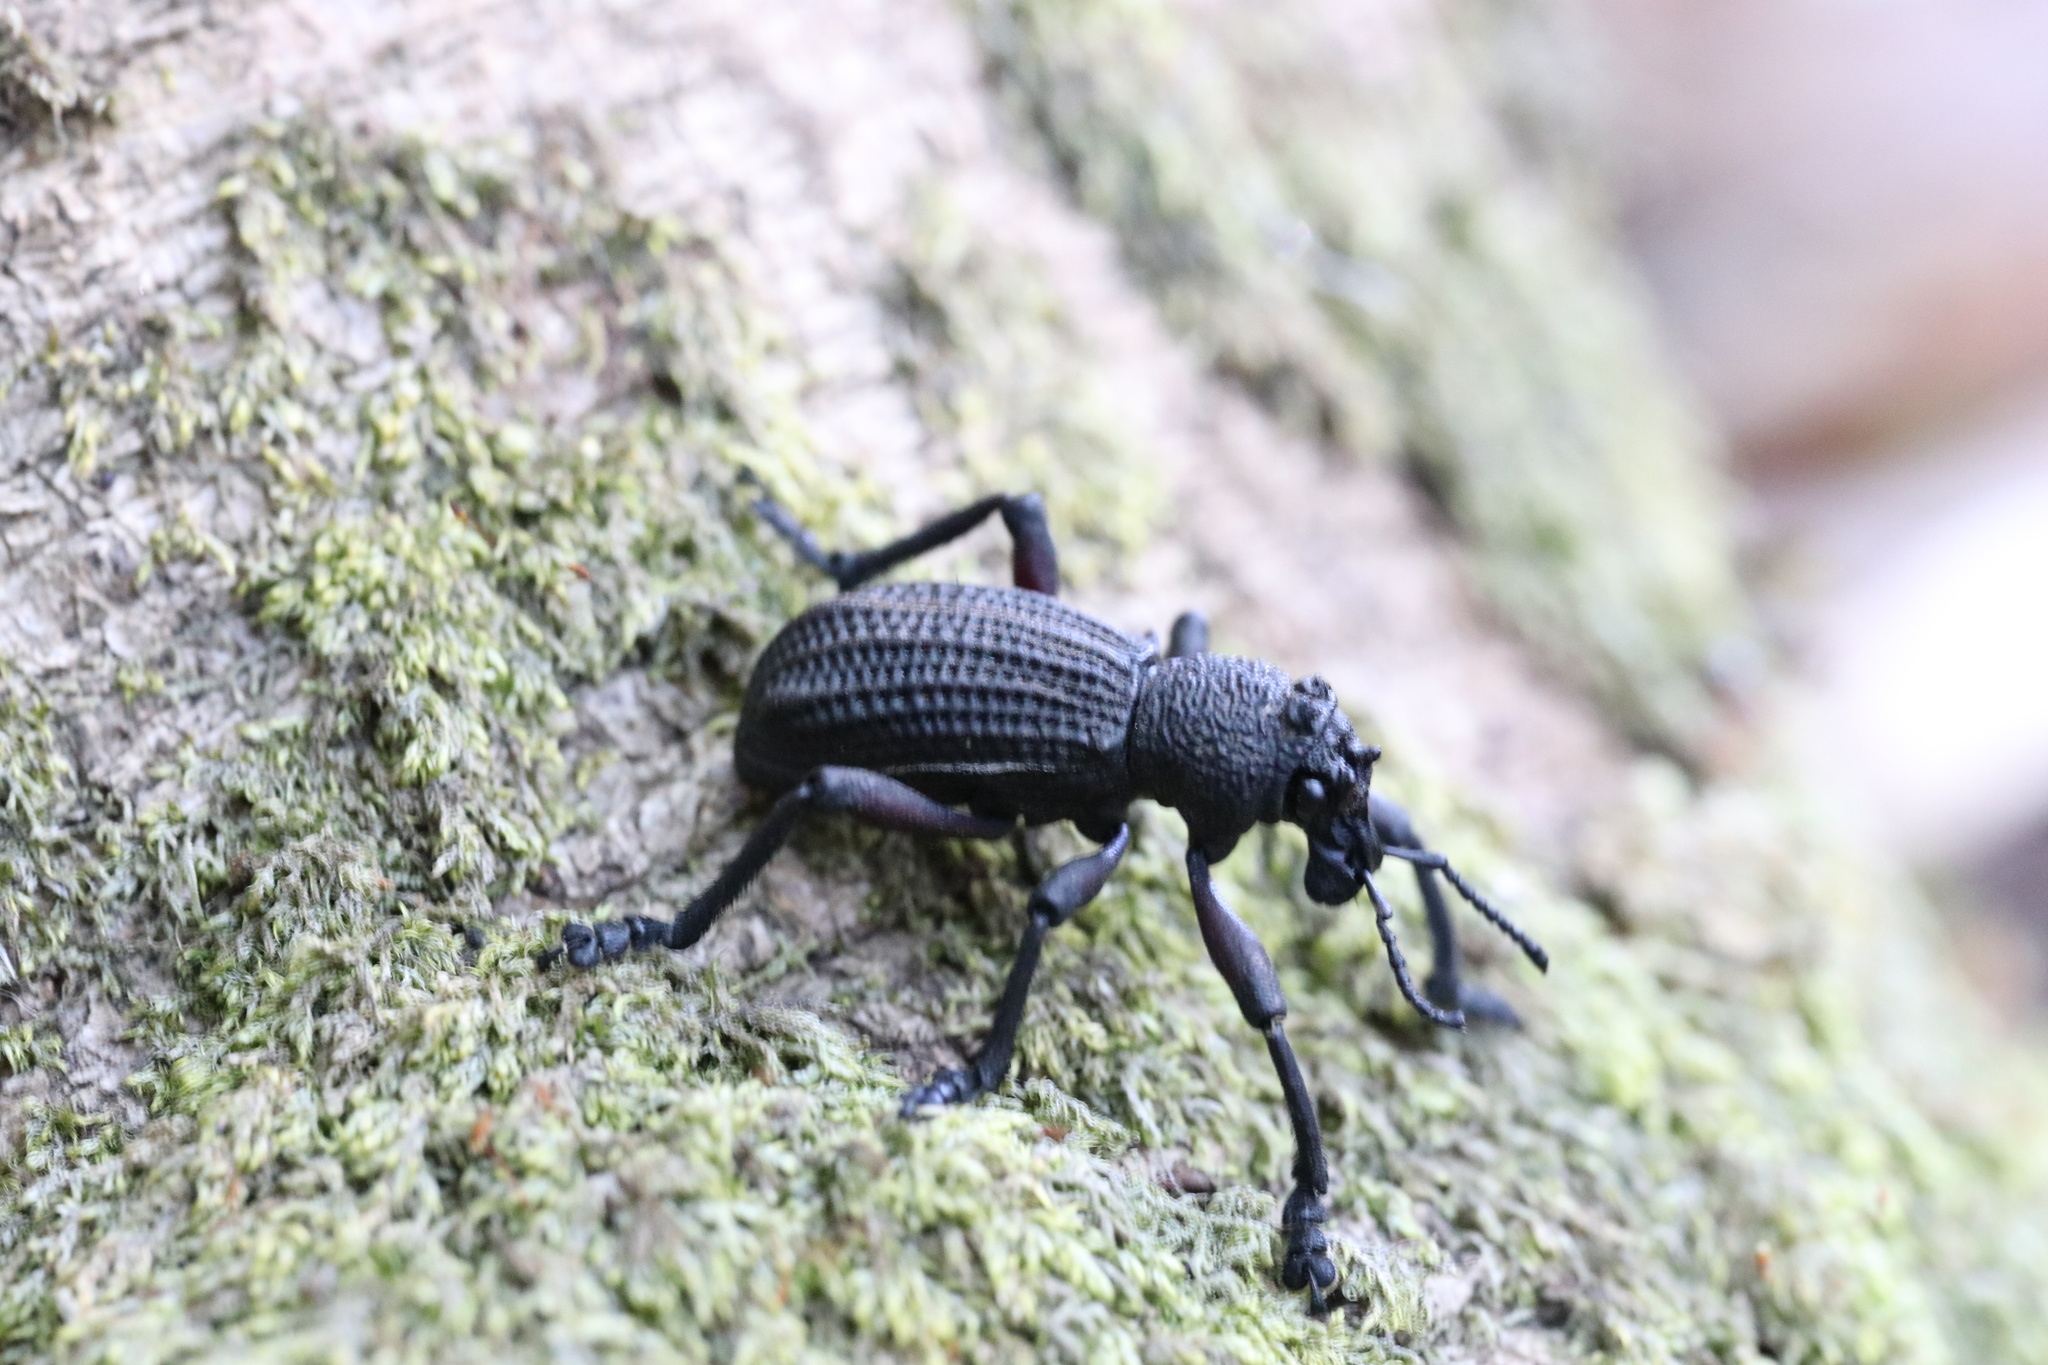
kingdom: Animalia
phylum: Arthropoda
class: Insecta
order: Coleoptera
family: Curculionidae
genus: Aegorhinus
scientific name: Aegorhinus
